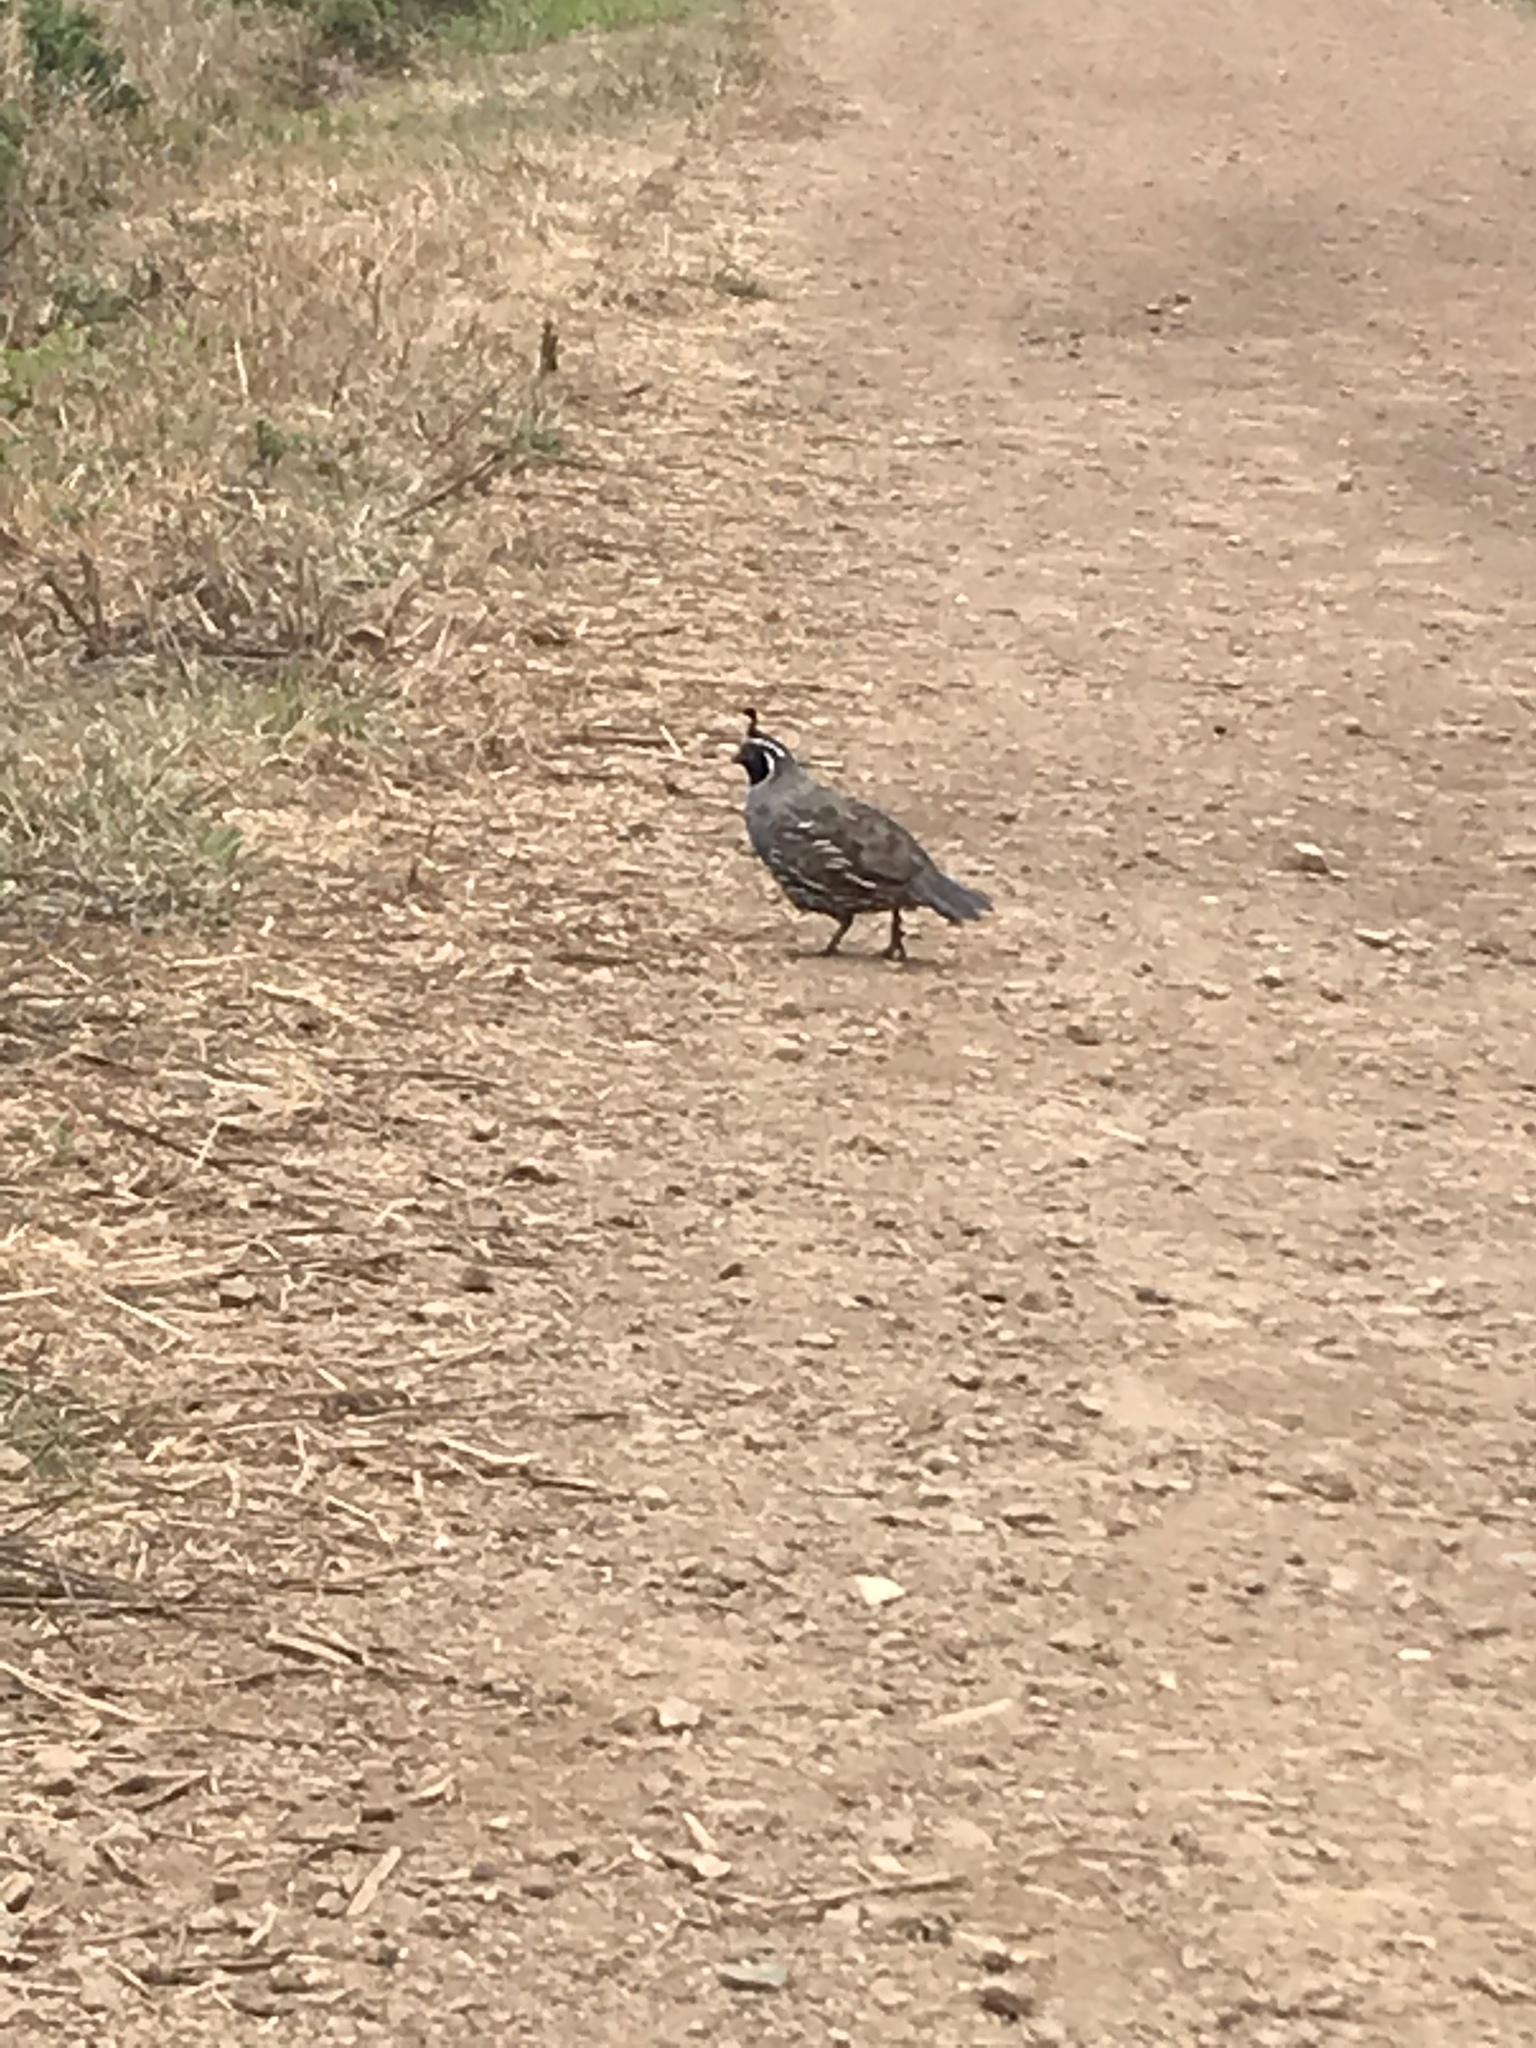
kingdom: Animalia
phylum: Chordata
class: Aves
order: Galliformes
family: Odontophoridae
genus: Callipepla
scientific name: Callipepla californica
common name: California quail
